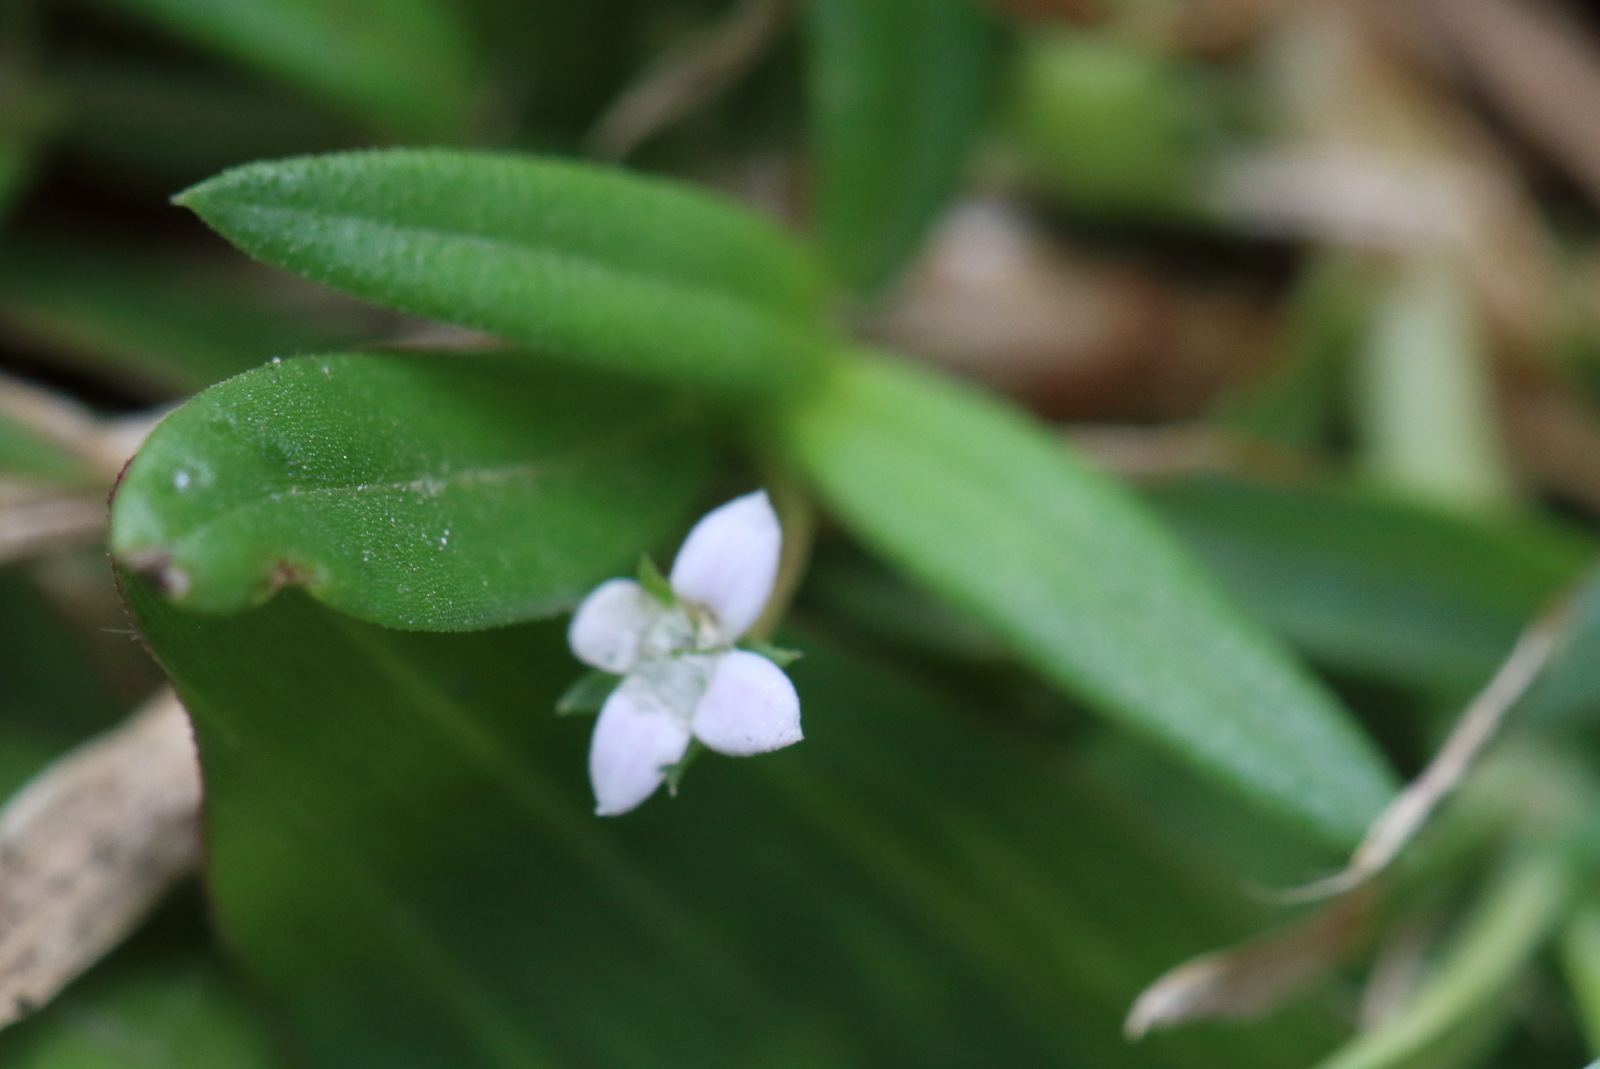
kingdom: Plantae
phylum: Tracheophyta
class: Magnoliopsida
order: Gentianales
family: Rubiaceae
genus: Oldenlandia
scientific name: Oldenlandia corymbosa
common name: Flat-top mille graines
